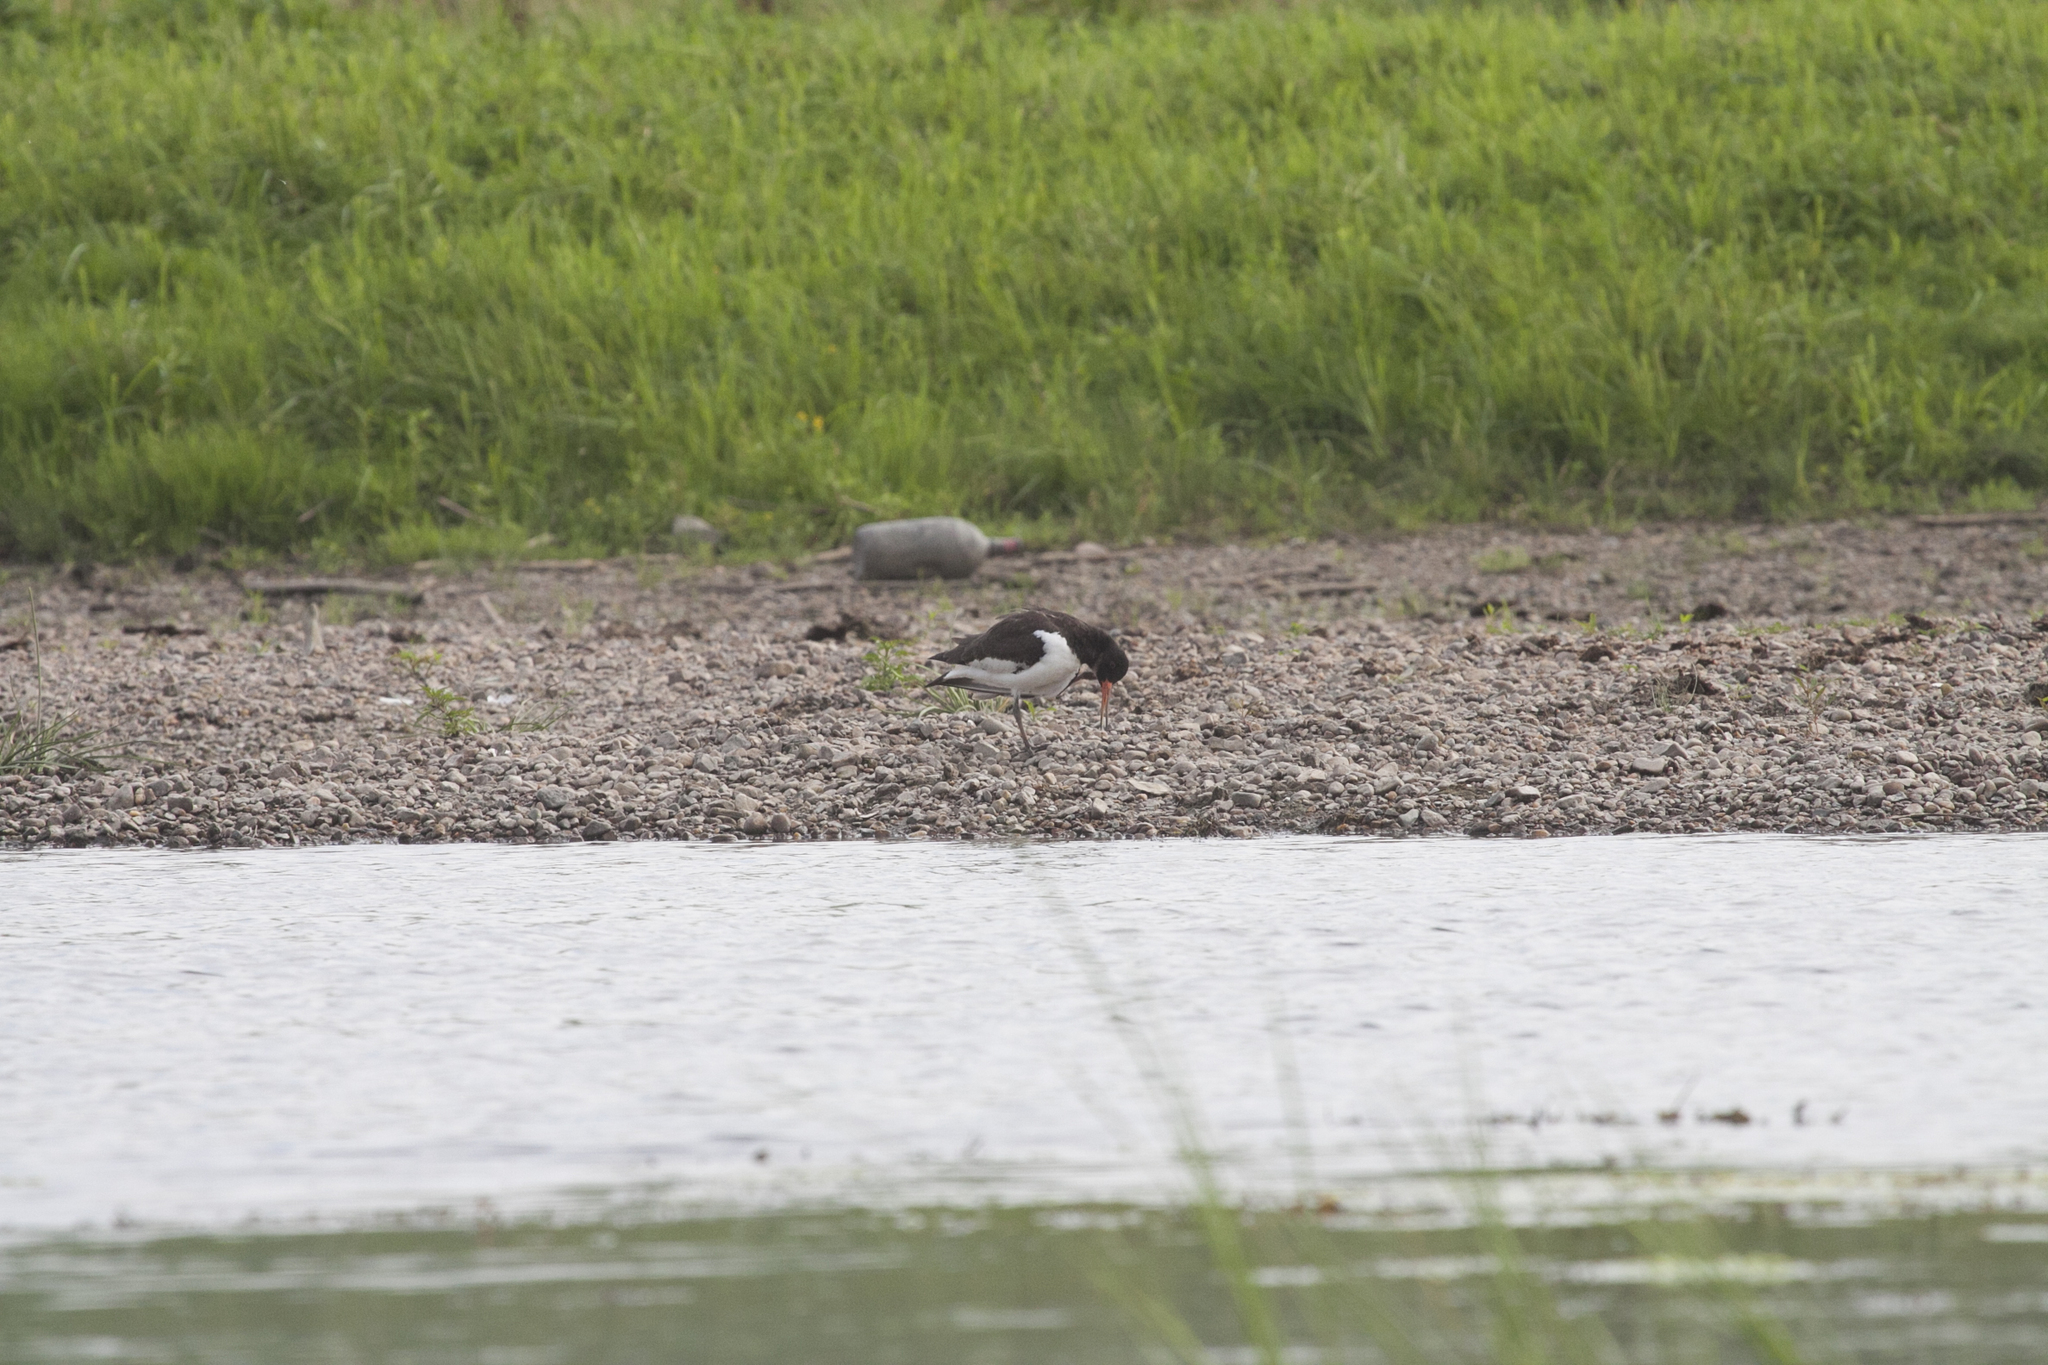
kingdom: Animalia
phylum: Chordata
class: Aves
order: Charadriiformes
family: Haematopodidae
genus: Haematopus
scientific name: Haematopus ostralegus
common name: Eurasian oystercatcher
